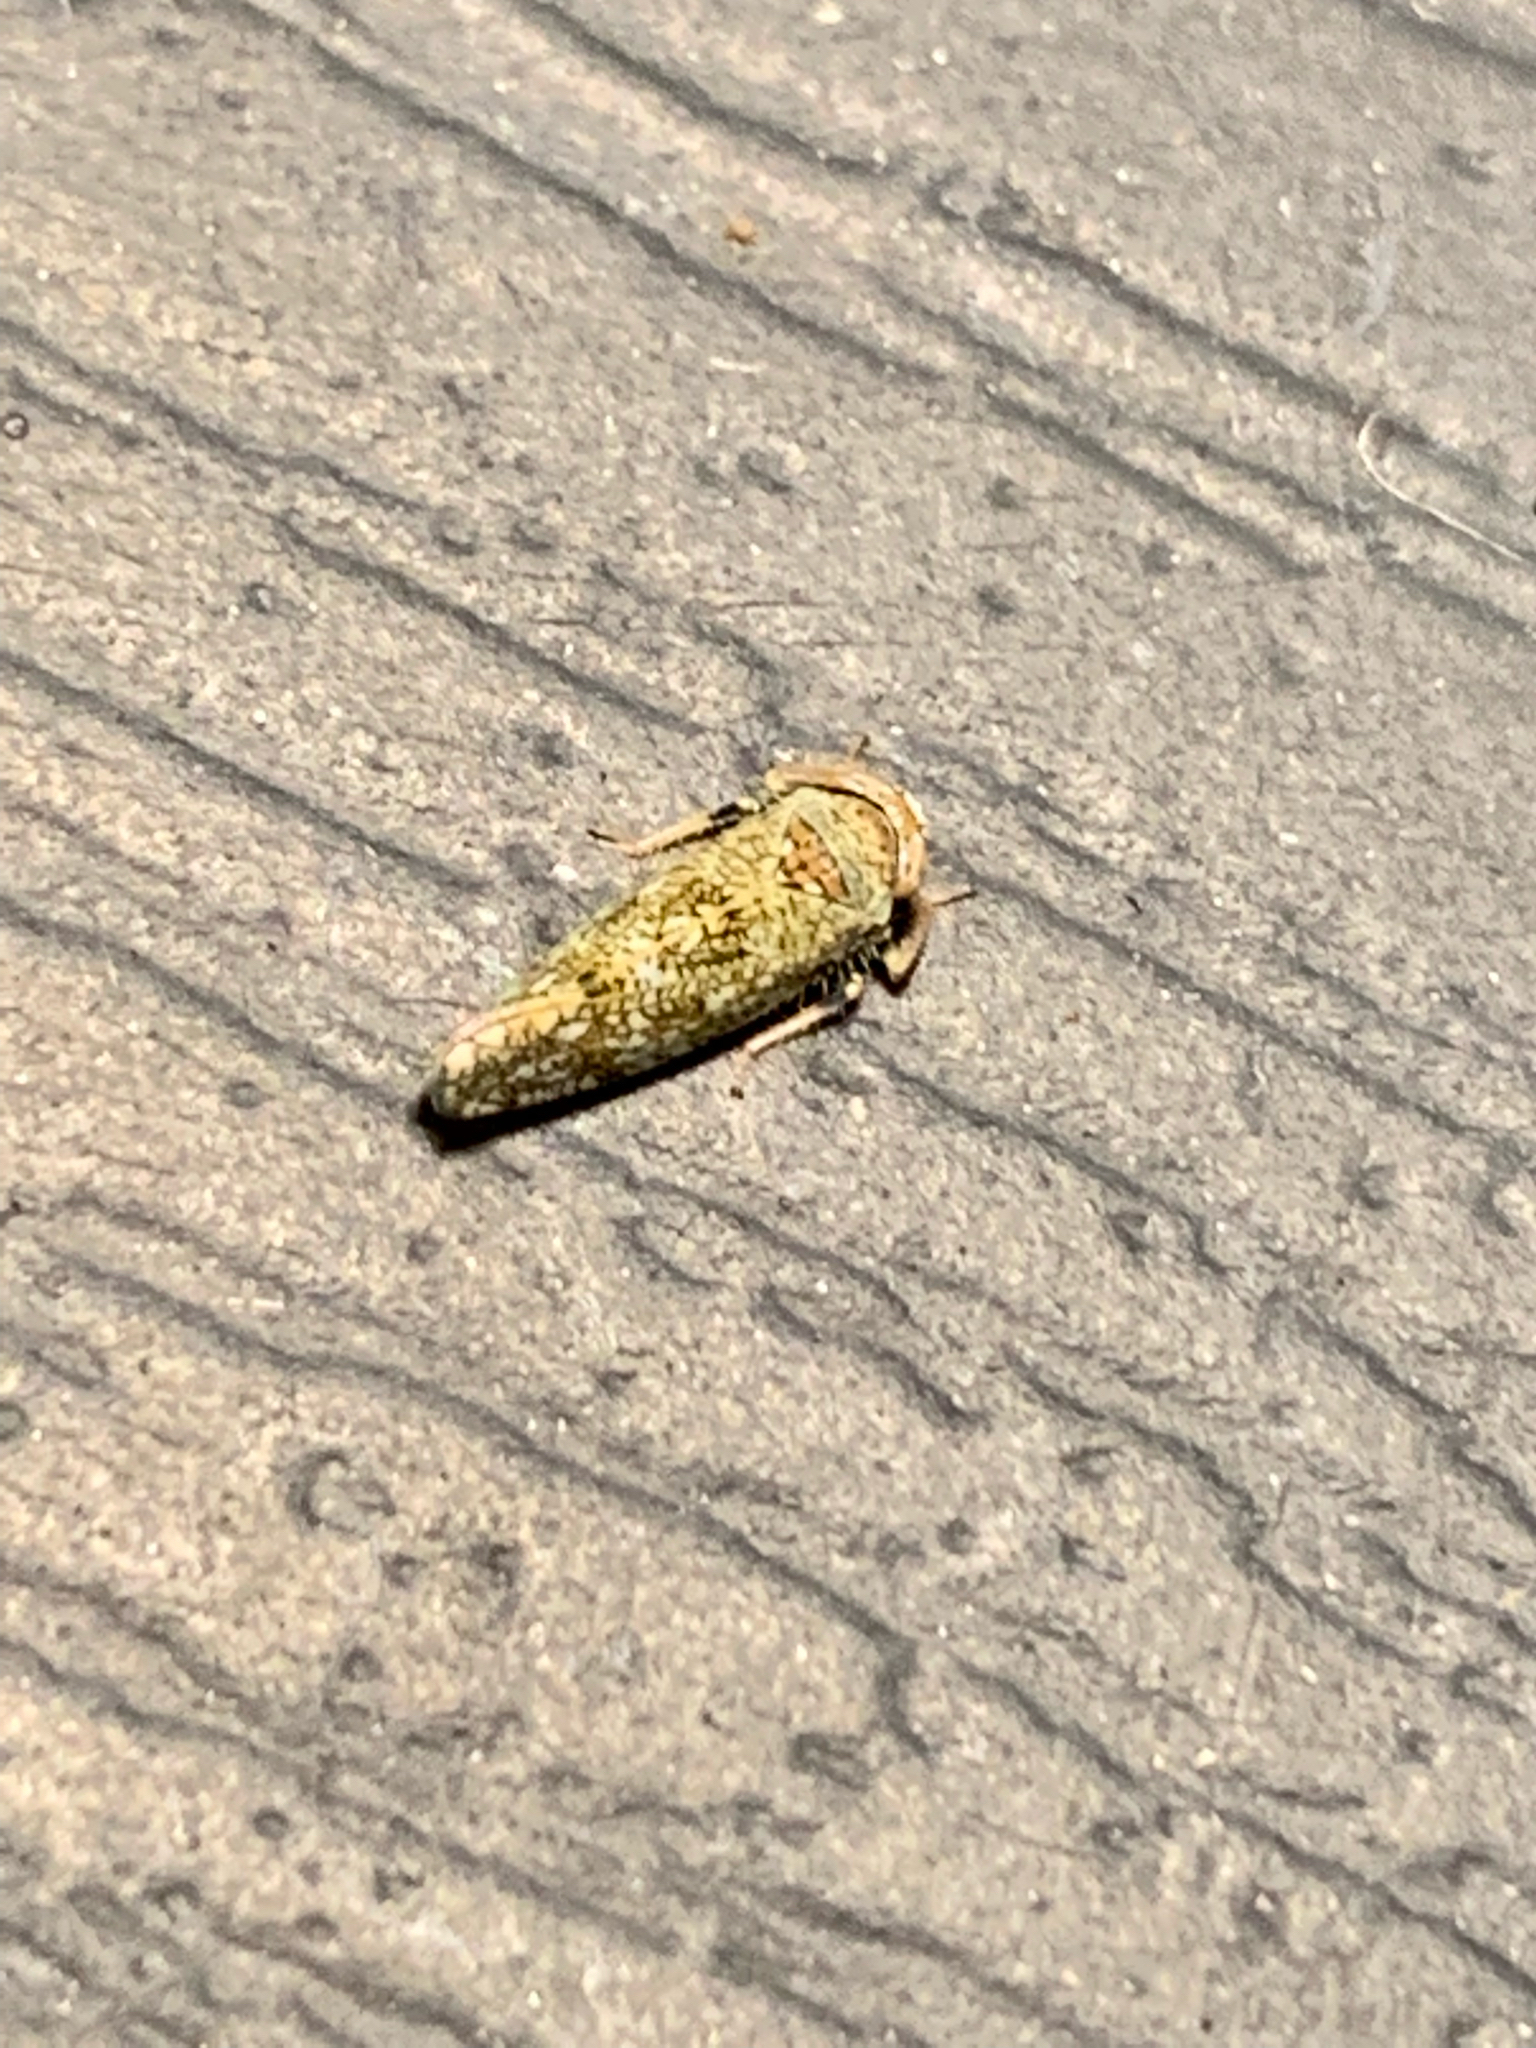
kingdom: Animalia
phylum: Arthropoda
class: Insecta
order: Hemiptera
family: Cicadellidae
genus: Orientus
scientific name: Orientus ishidae
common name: Japanese leafhopper
